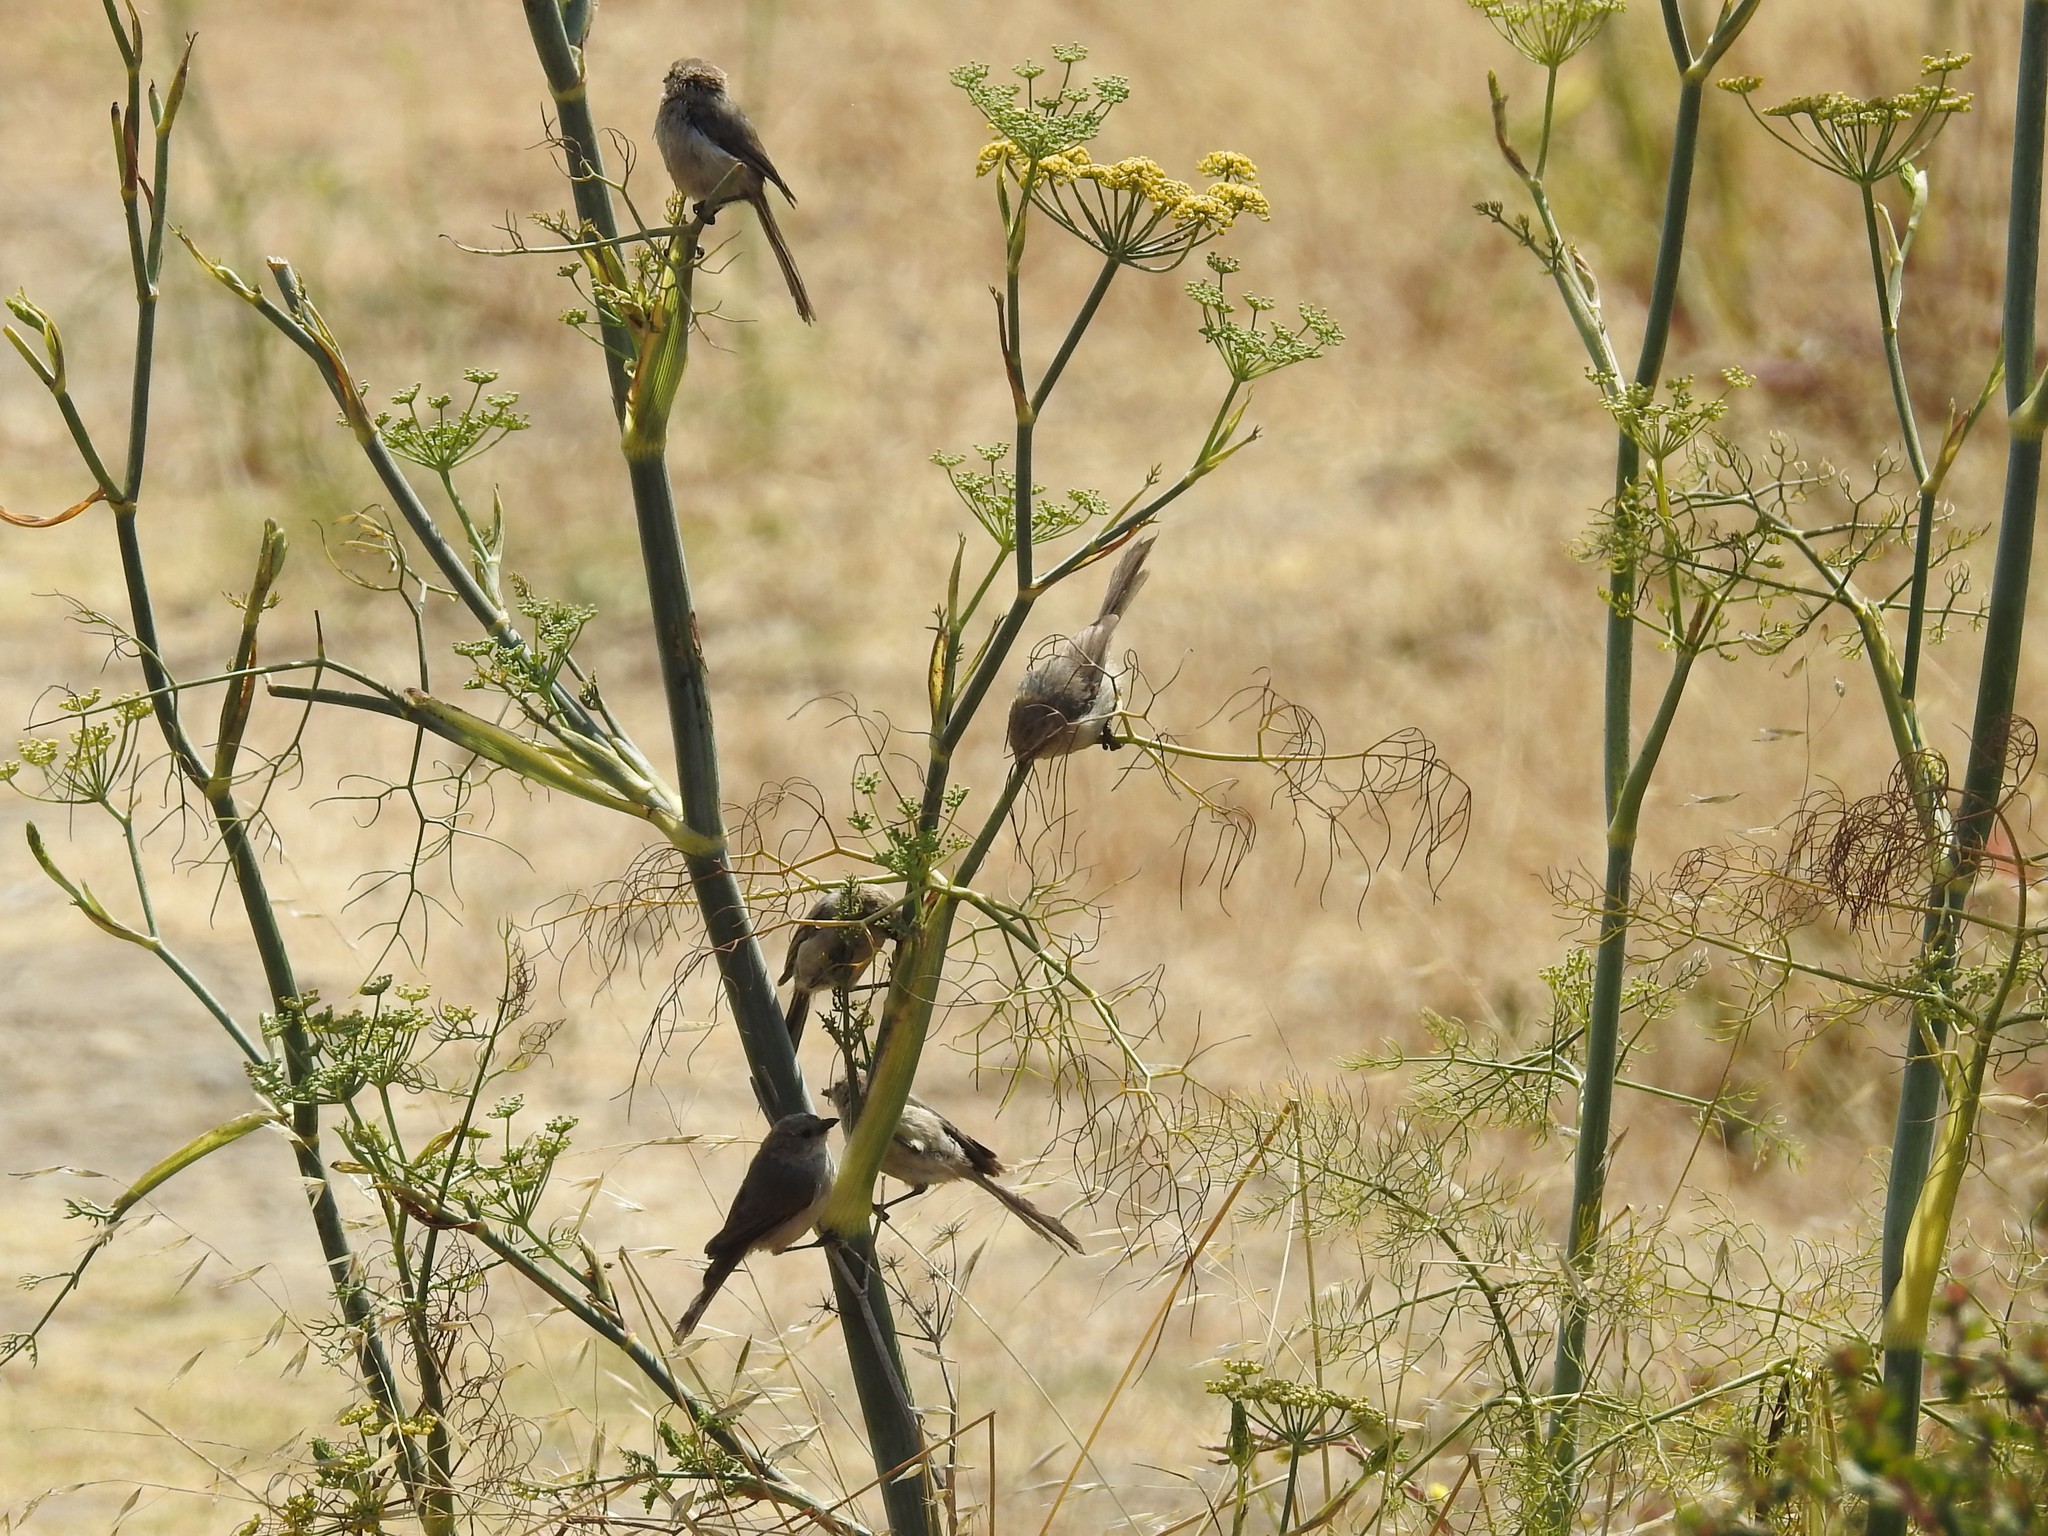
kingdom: Animalia
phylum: Chordata
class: Aves
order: Passeriformes
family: Aegithalidae
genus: Psaltriparus
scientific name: Psaltriparus minimus
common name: American bushtit
